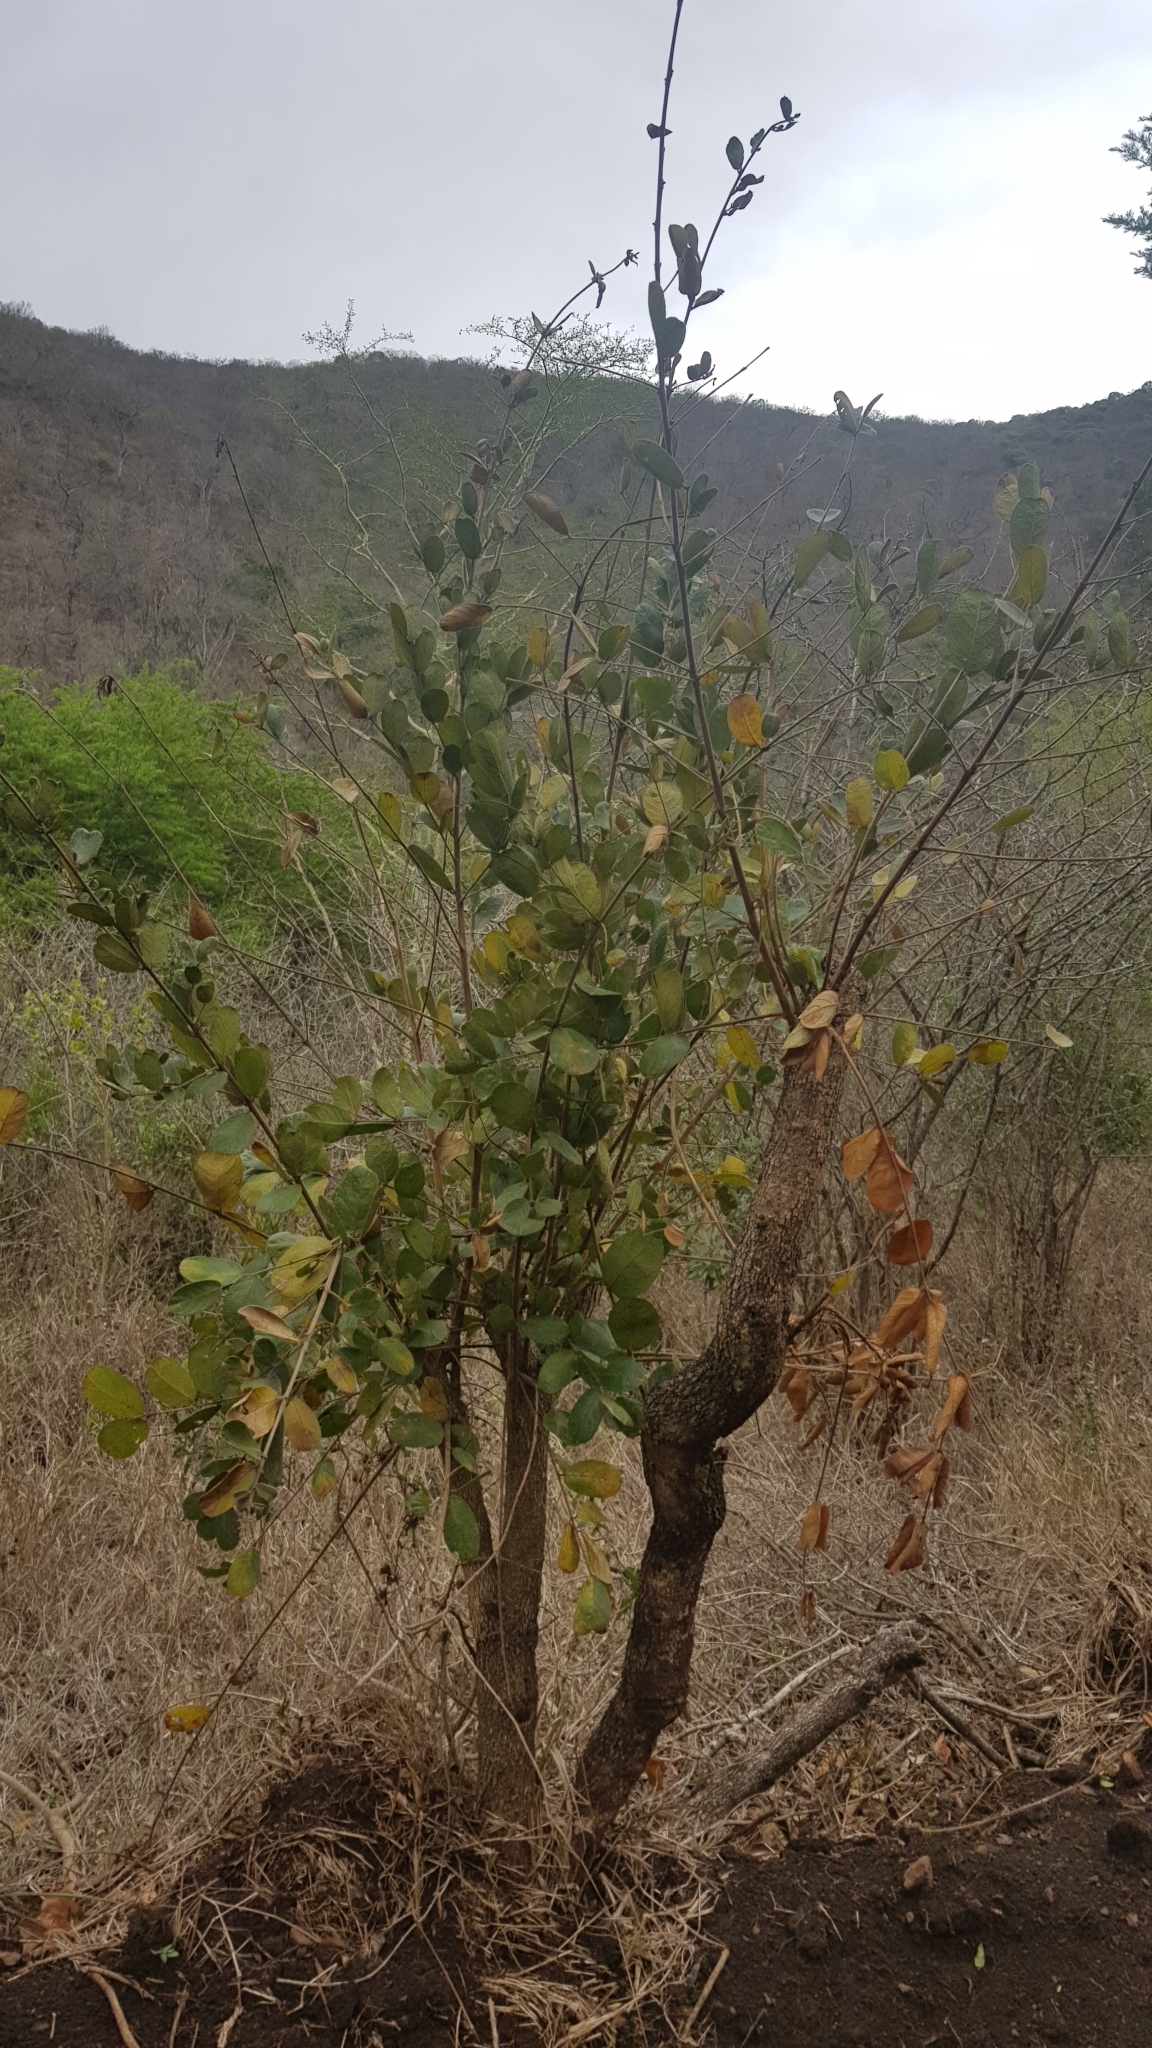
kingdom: Plantae
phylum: Tracheophyta
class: Magnoliopsida
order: Myrtales
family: Combretaceae
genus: Combretum
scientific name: Combretum molle
